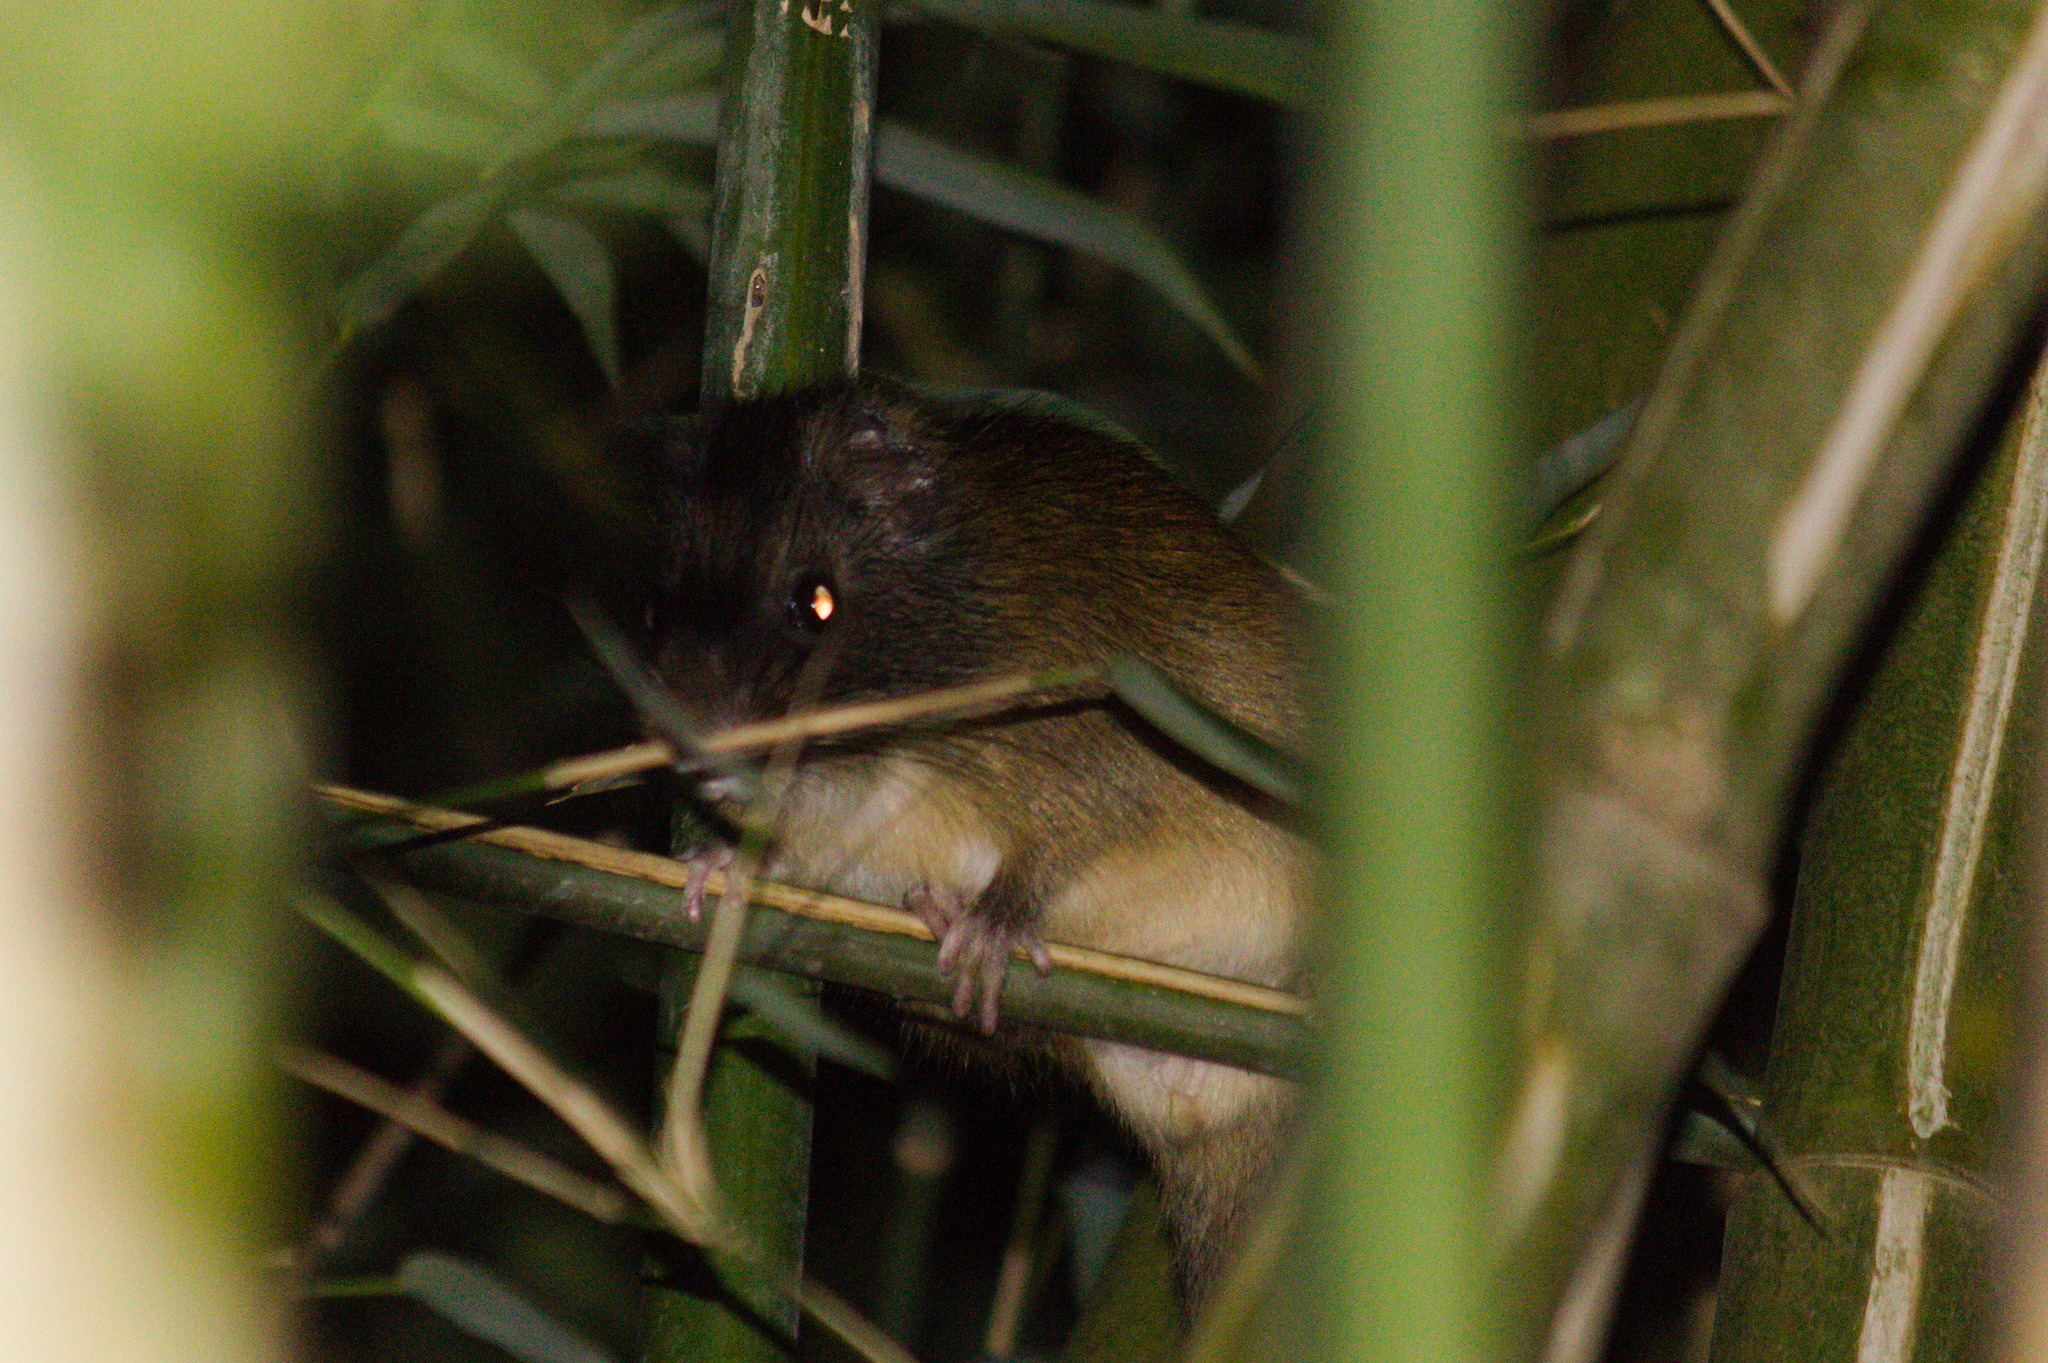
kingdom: Animalia
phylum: Chordata
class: Mammalia
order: Rodentia
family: Echimyidae
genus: Kannabateomys
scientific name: Kannabateomys amblyonyx
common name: Atlantic bamboo rat
